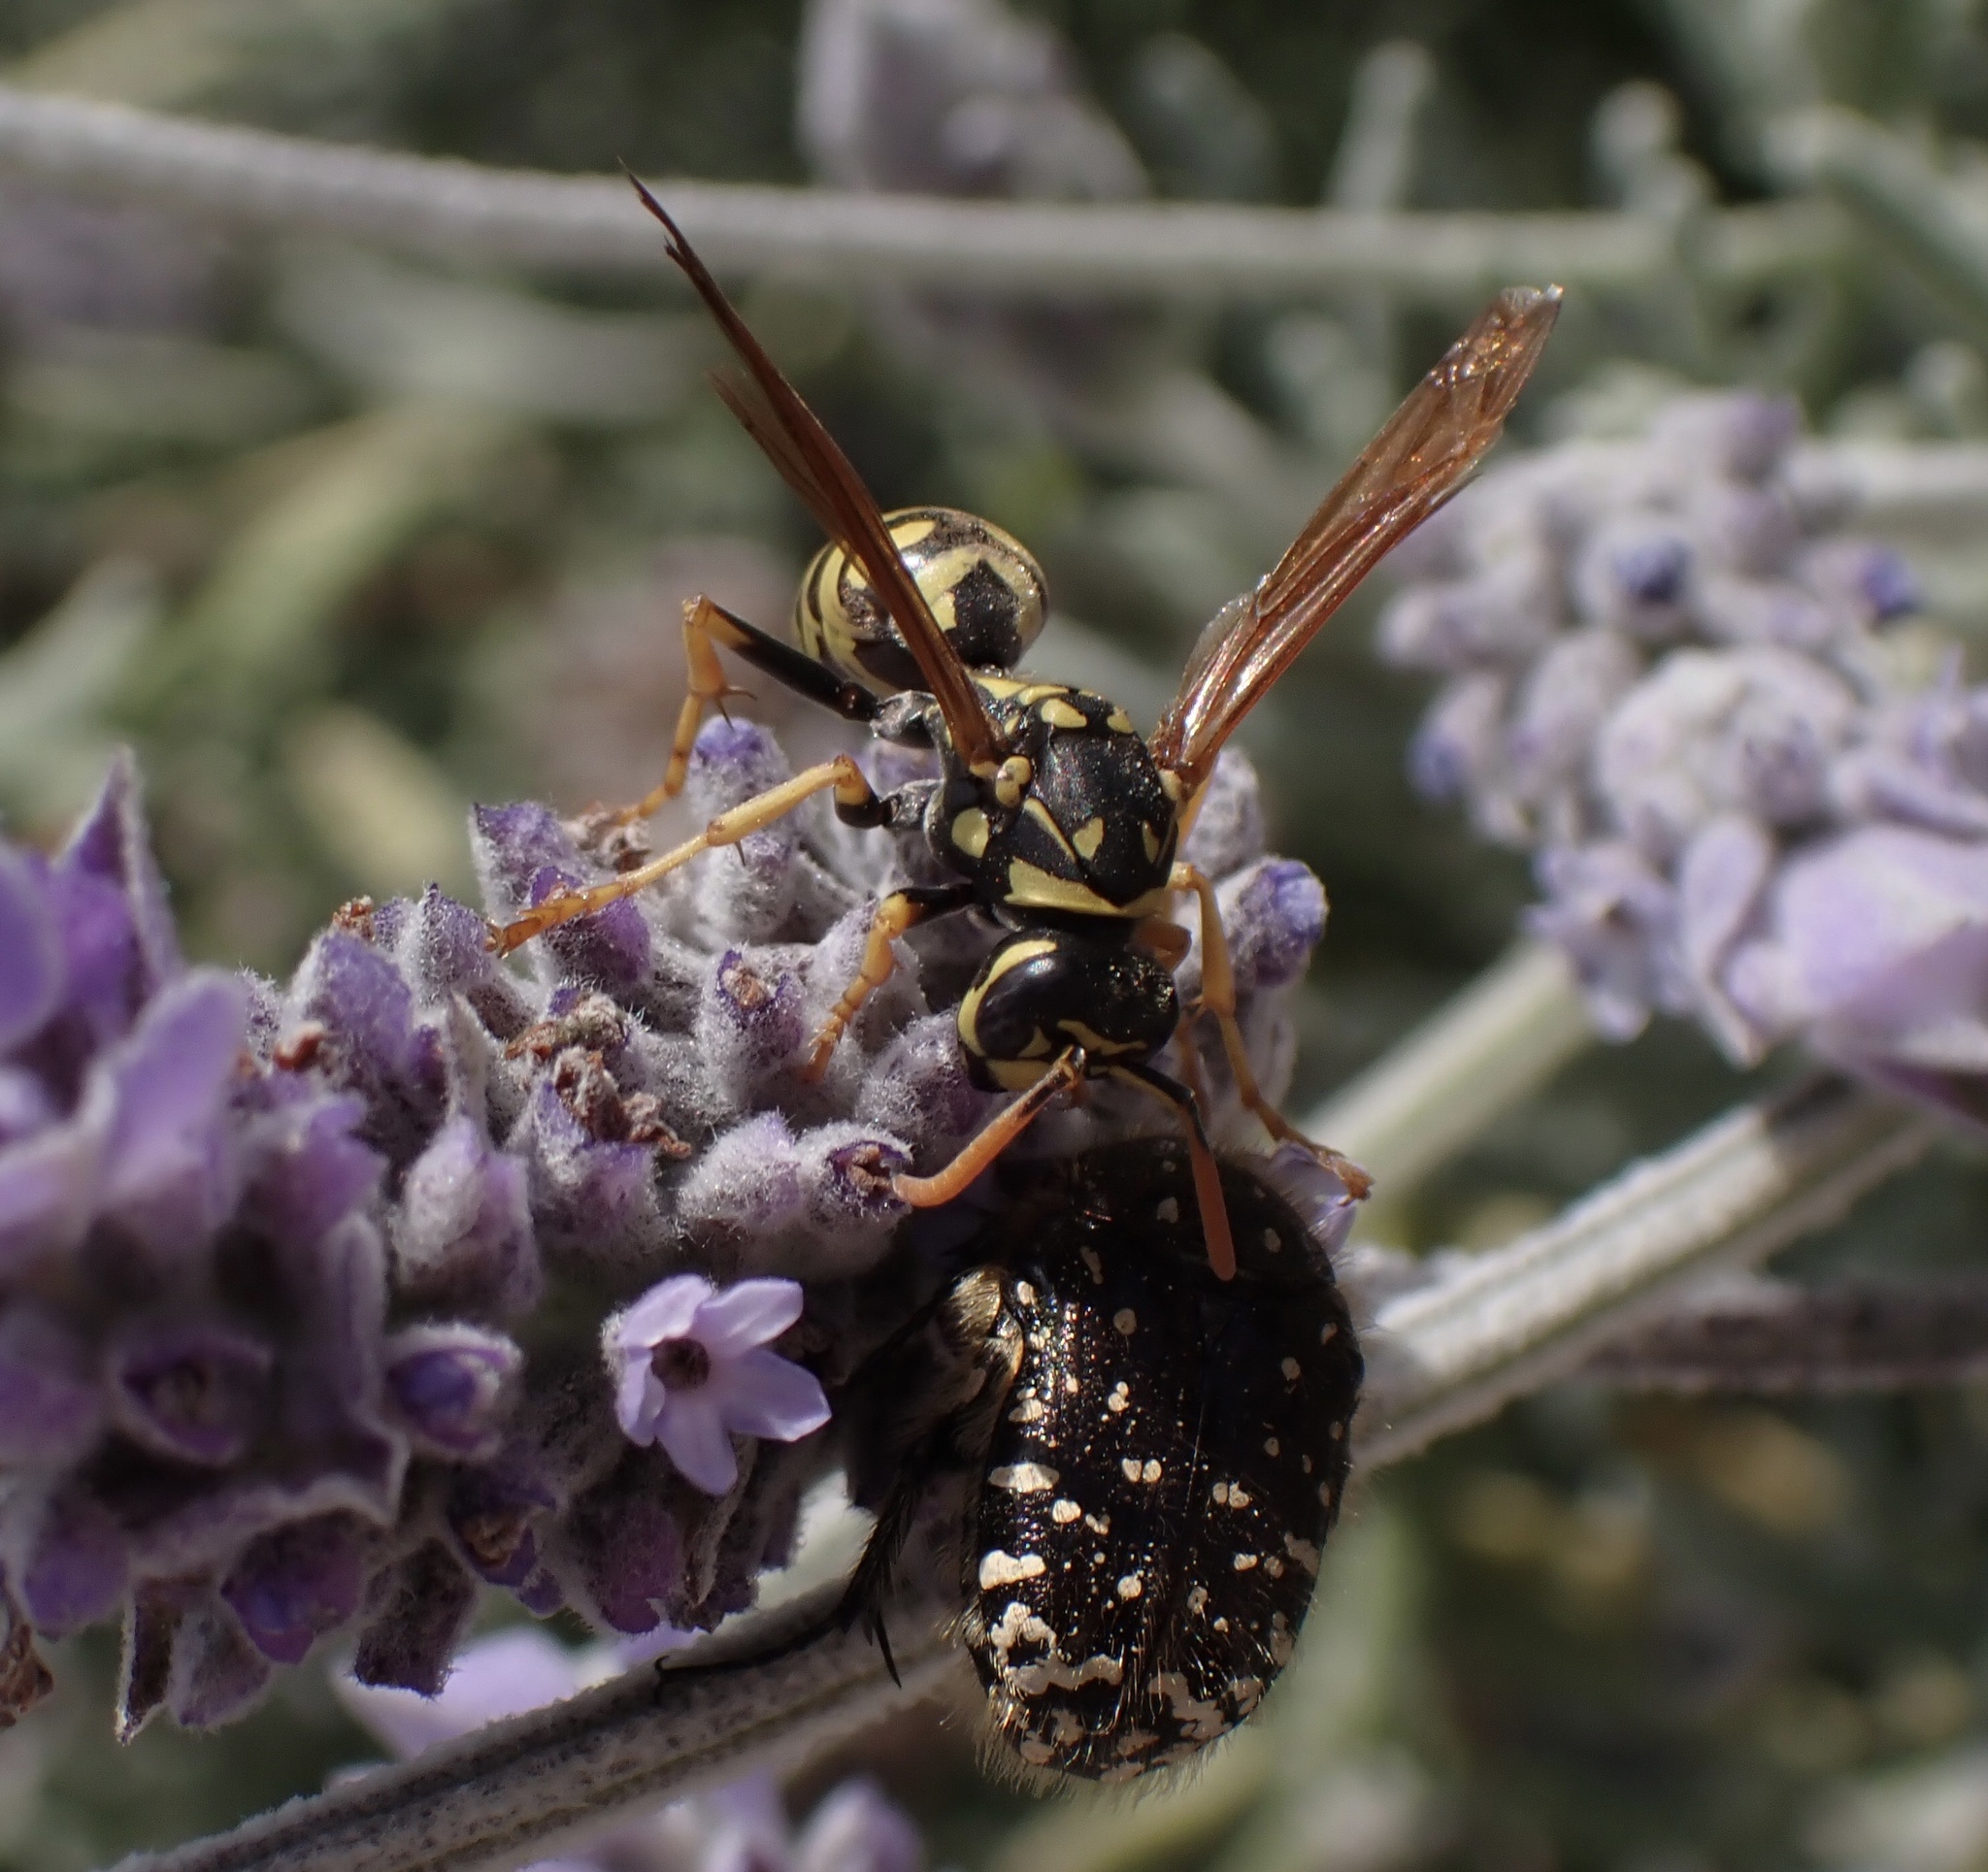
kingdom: Animalia
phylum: Arthropoda
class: Insecta
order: Hymenoptera
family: Eumenidae
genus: Polistes
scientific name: Polistes dominula
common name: Paper wasp
